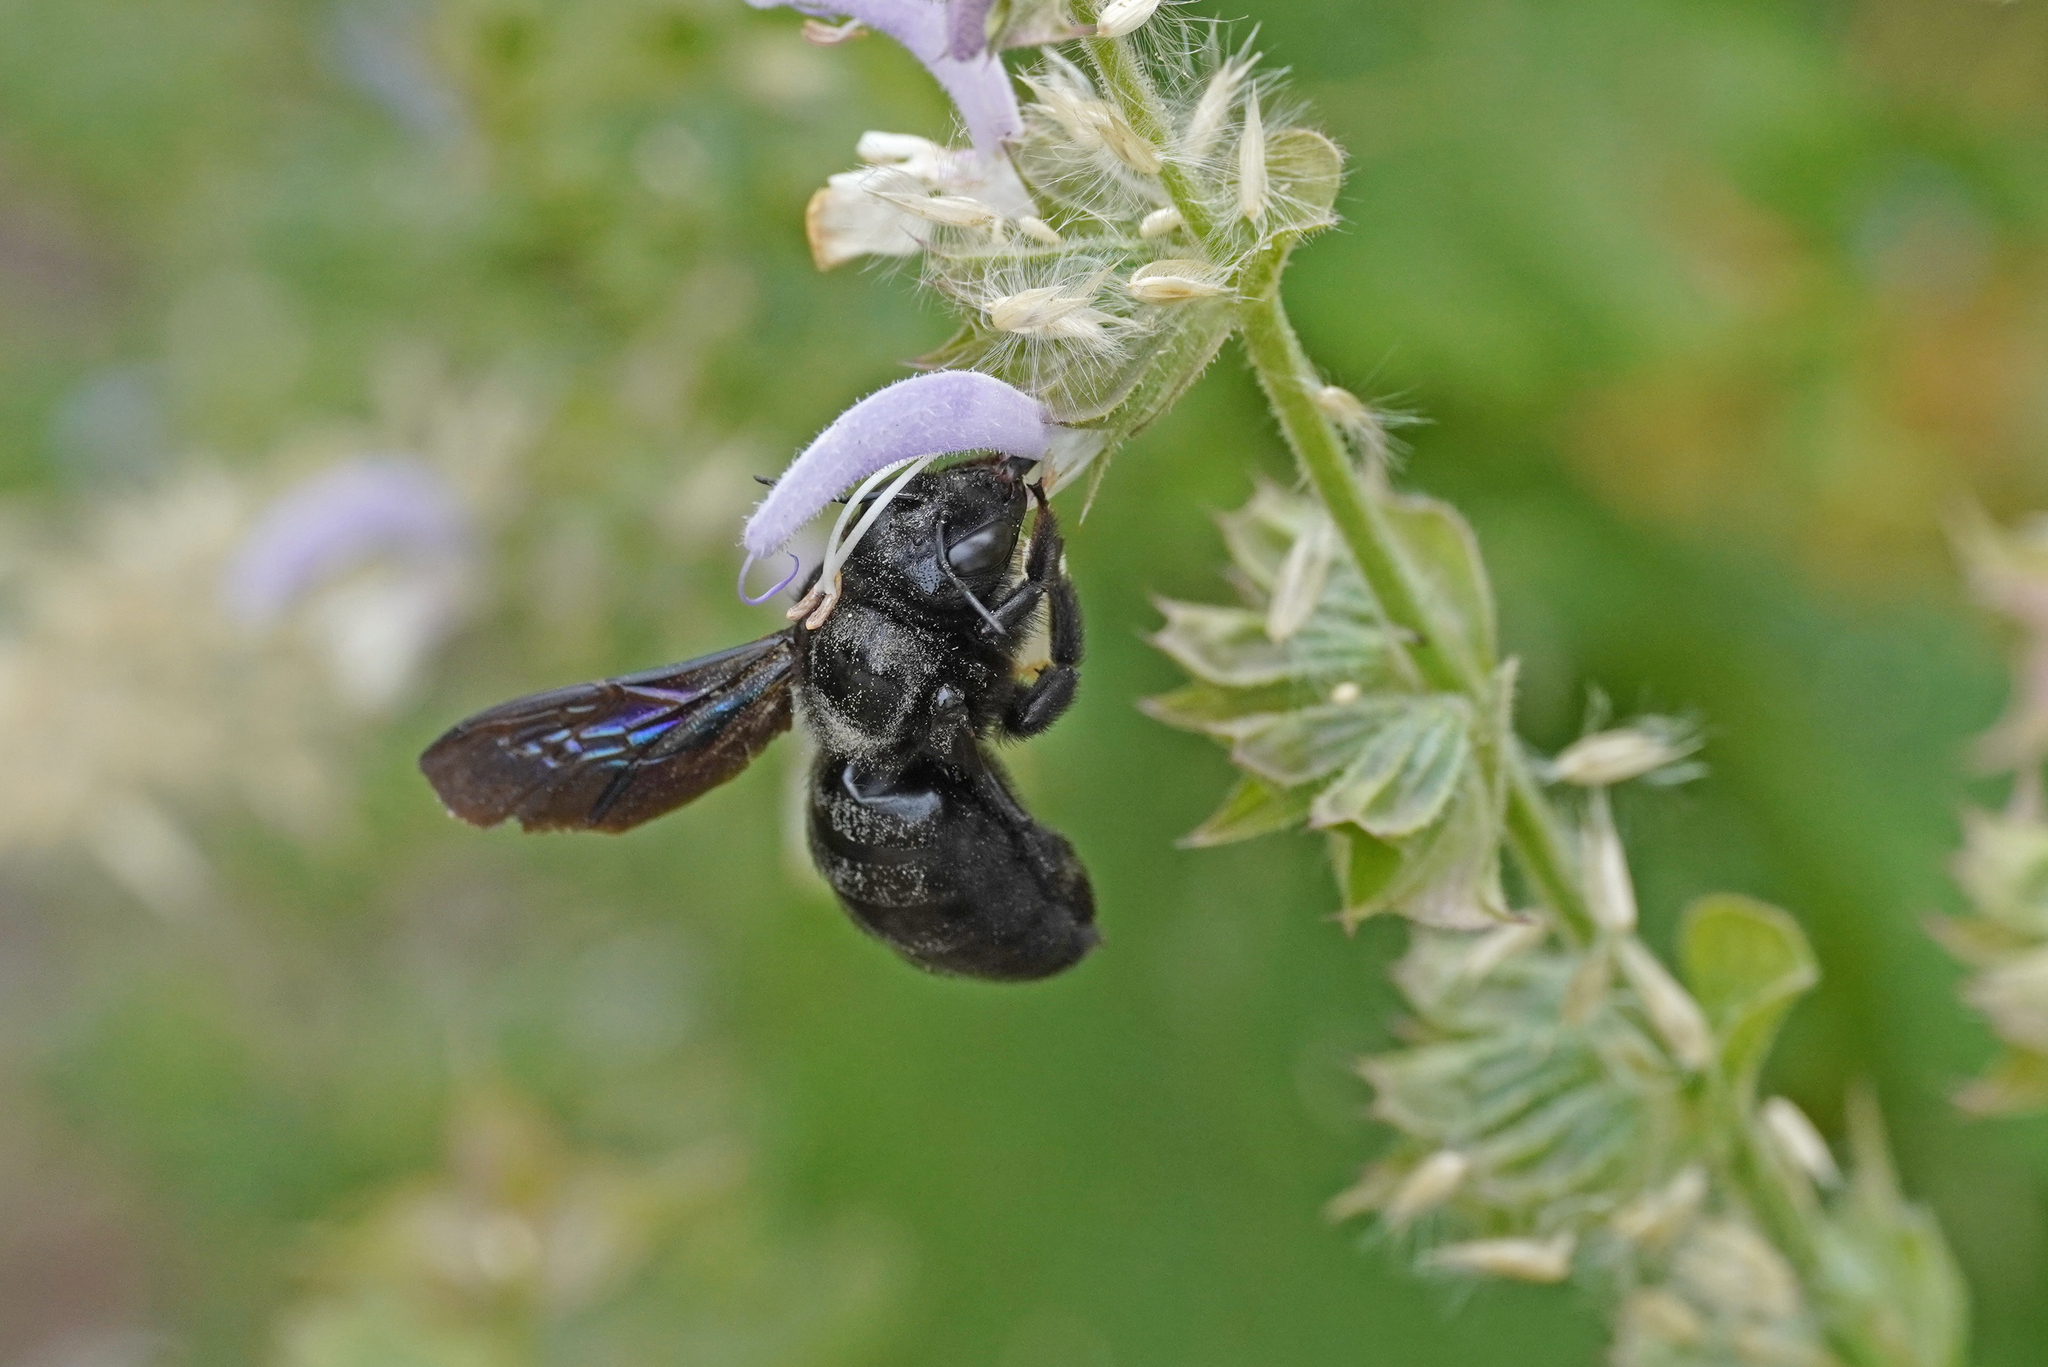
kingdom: Animalia
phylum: Arthropoda
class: Insecta
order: Hymenoptera
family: Apidae
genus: Xylocopa
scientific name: Xylocopa violacea
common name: Violet carpenter bee
